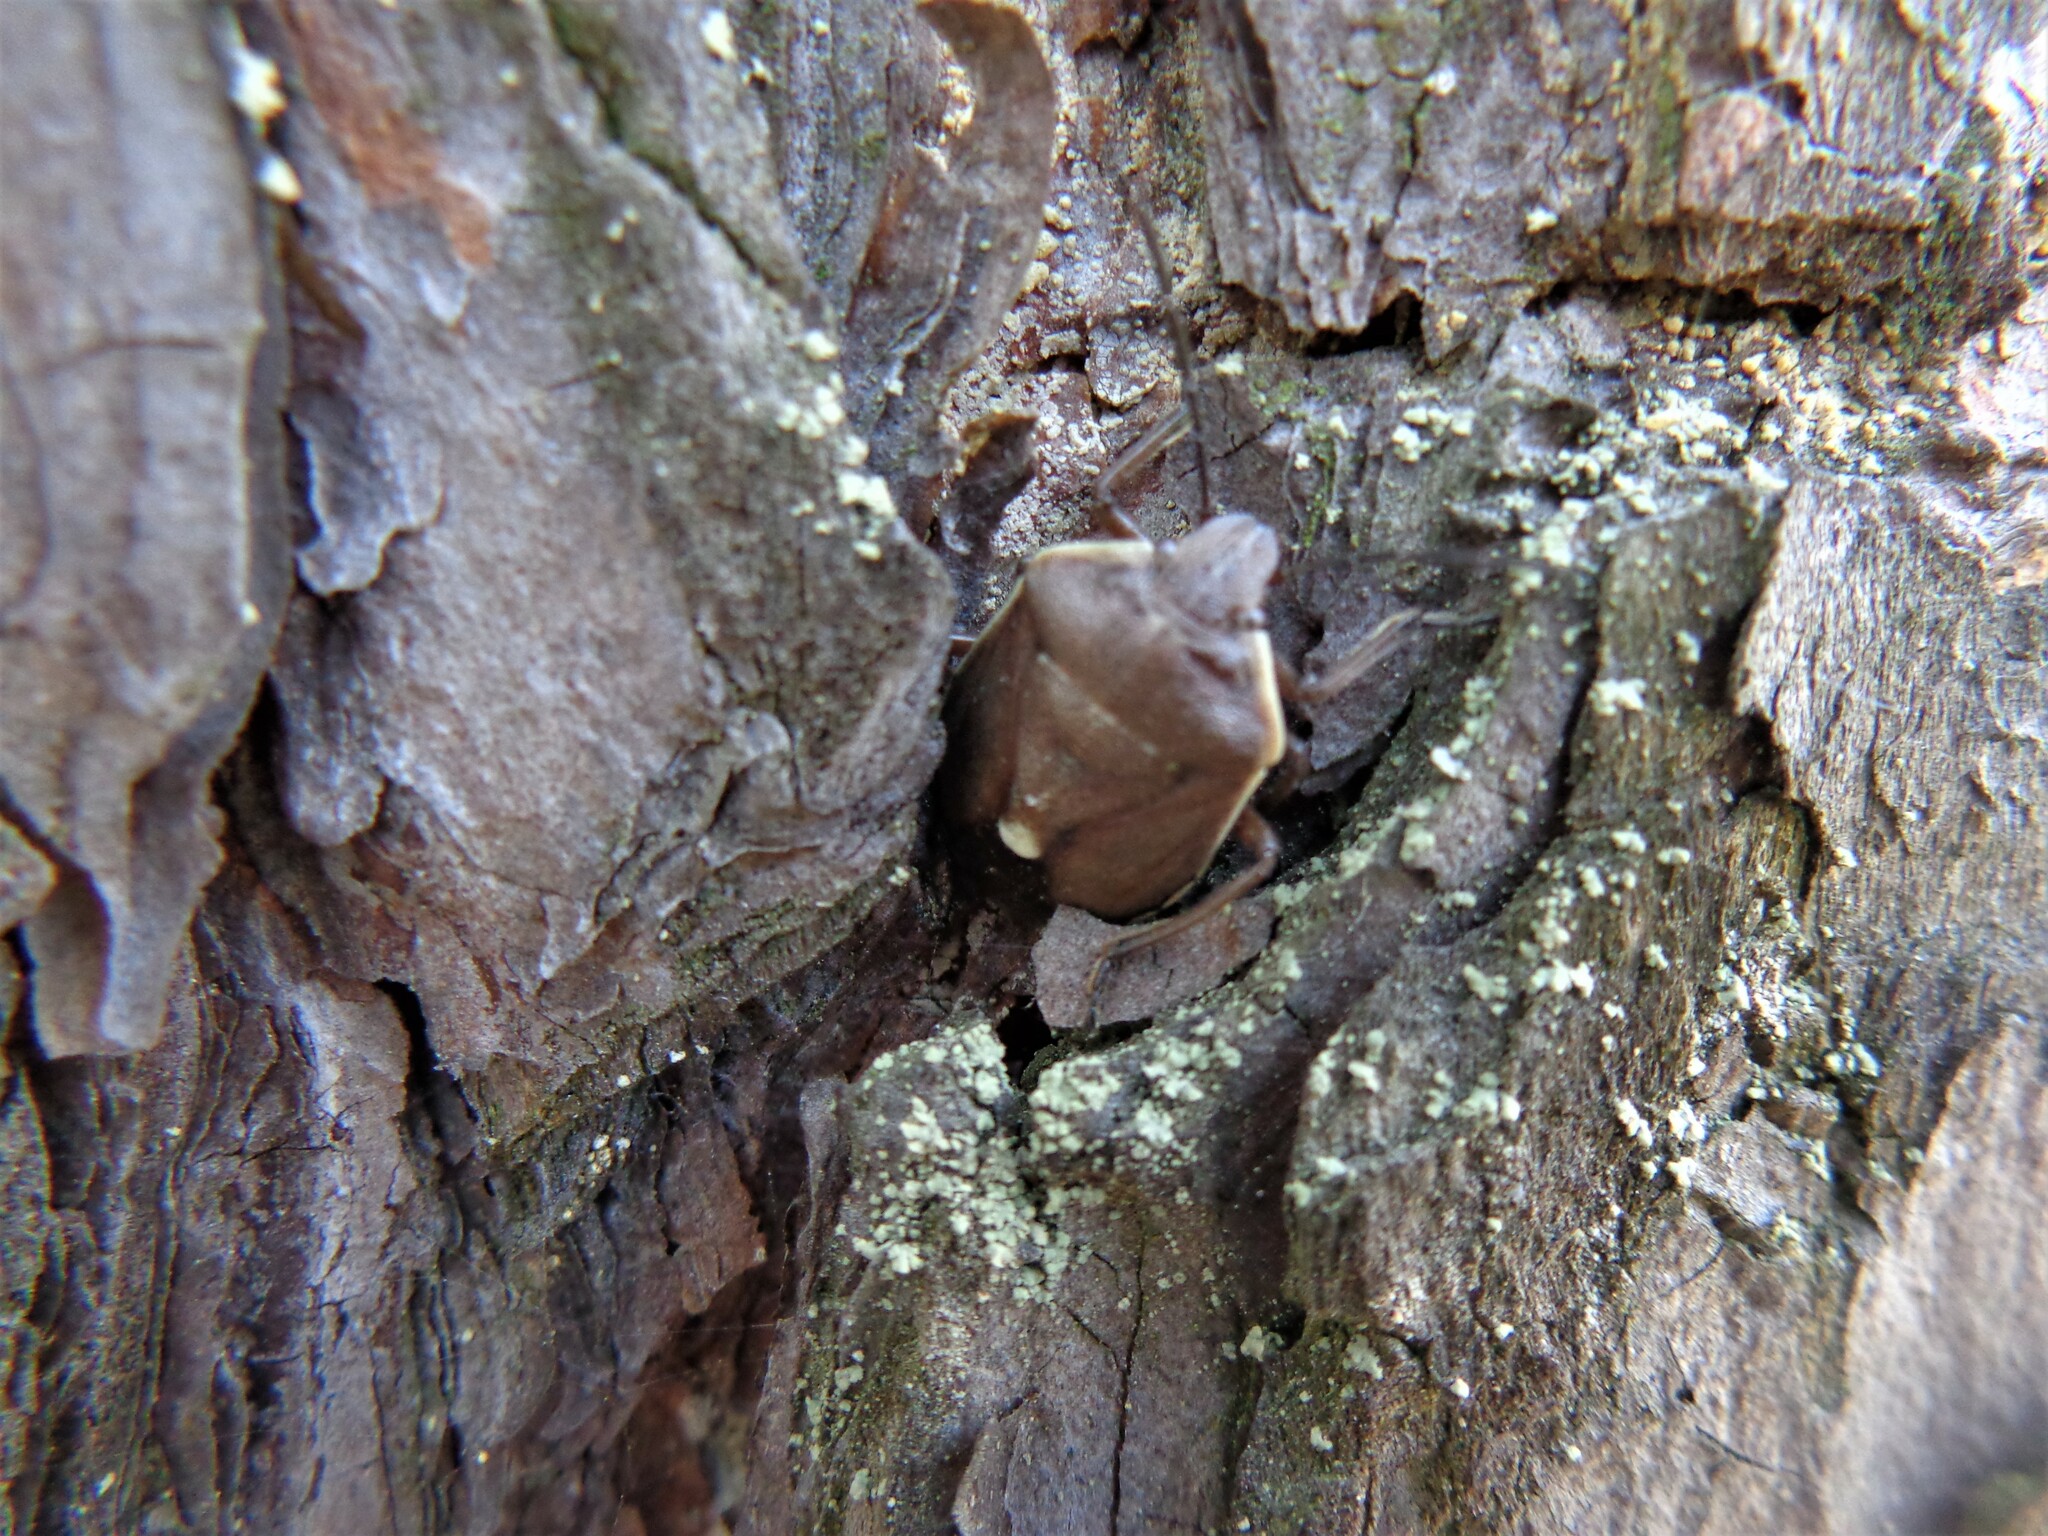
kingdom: Animalia
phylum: Arthropoda
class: Insecta
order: Hemiptera
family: Pentatomidae
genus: Chlorochroa
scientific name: Chlorochroa pinicola
